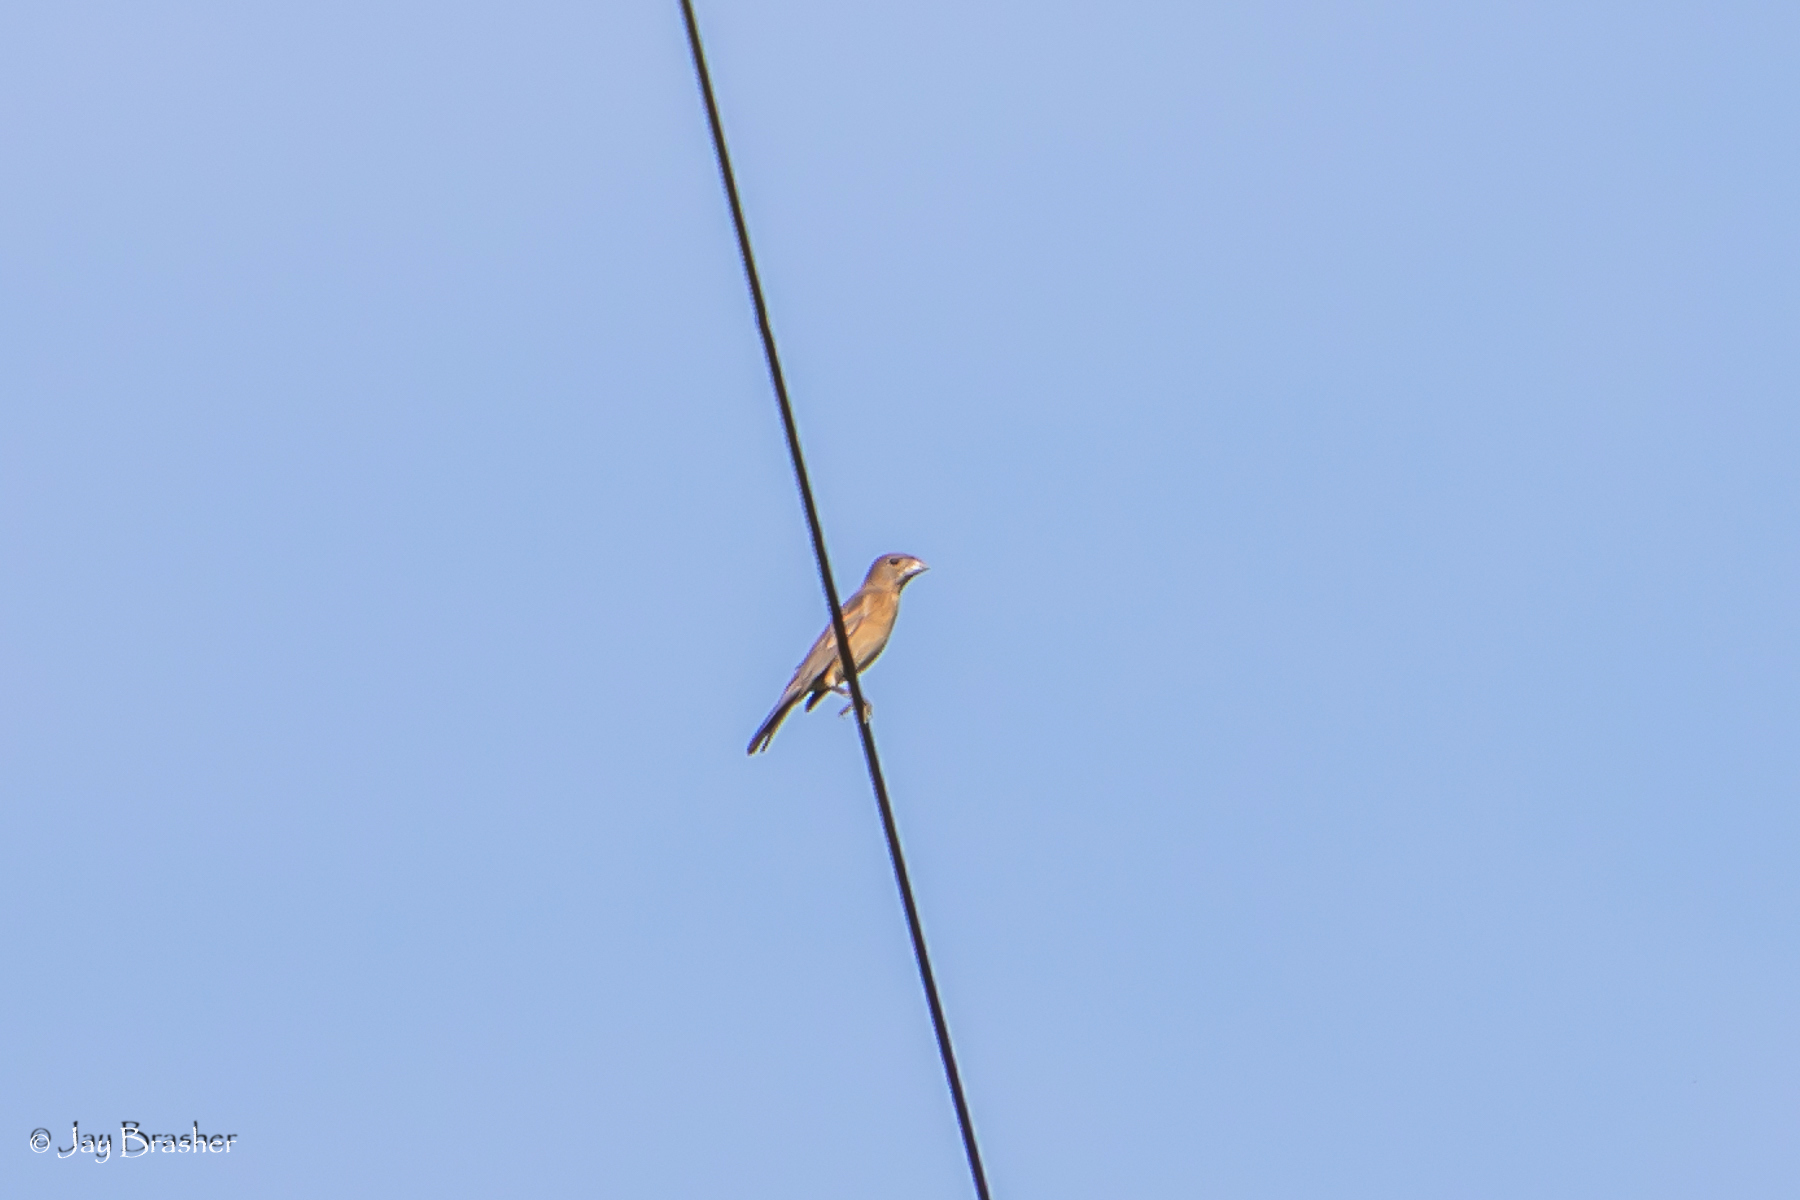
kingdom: Animalia
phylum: Chordata
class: Aves
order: Passeriformes
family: Cardinalidae
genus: Passerina
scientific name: Passerina caerulea
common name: Blue grosbeak
